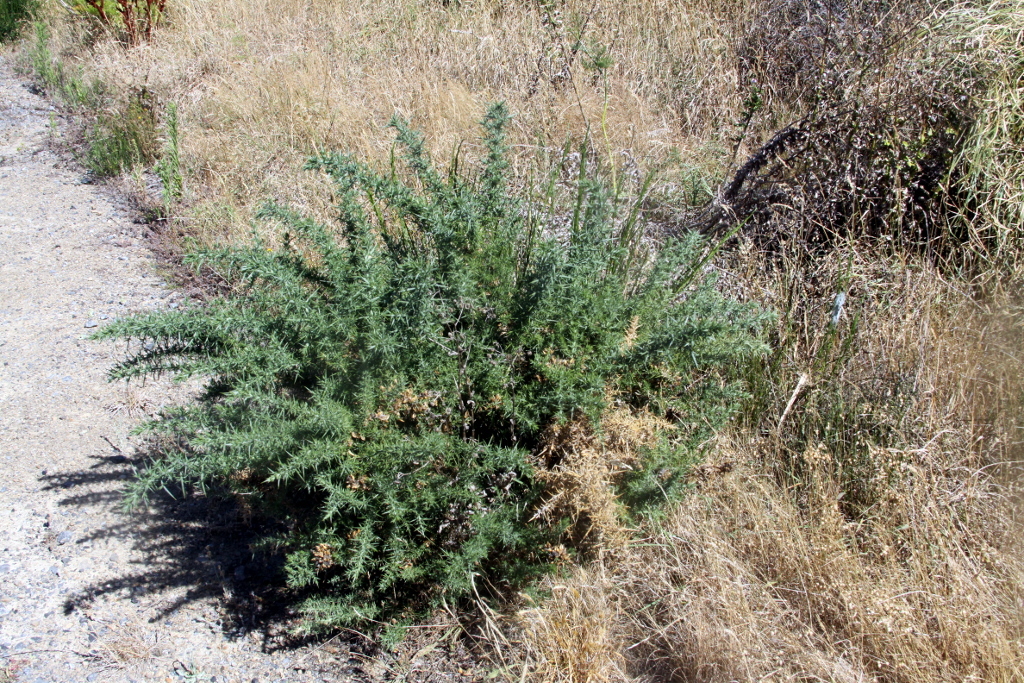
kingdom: Plantae
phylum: Tracheophyta
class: Magnoliopsida
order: Fabales
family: Fabaceae
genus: Ulex
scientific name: Ulex europaeus
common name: Common gorse
